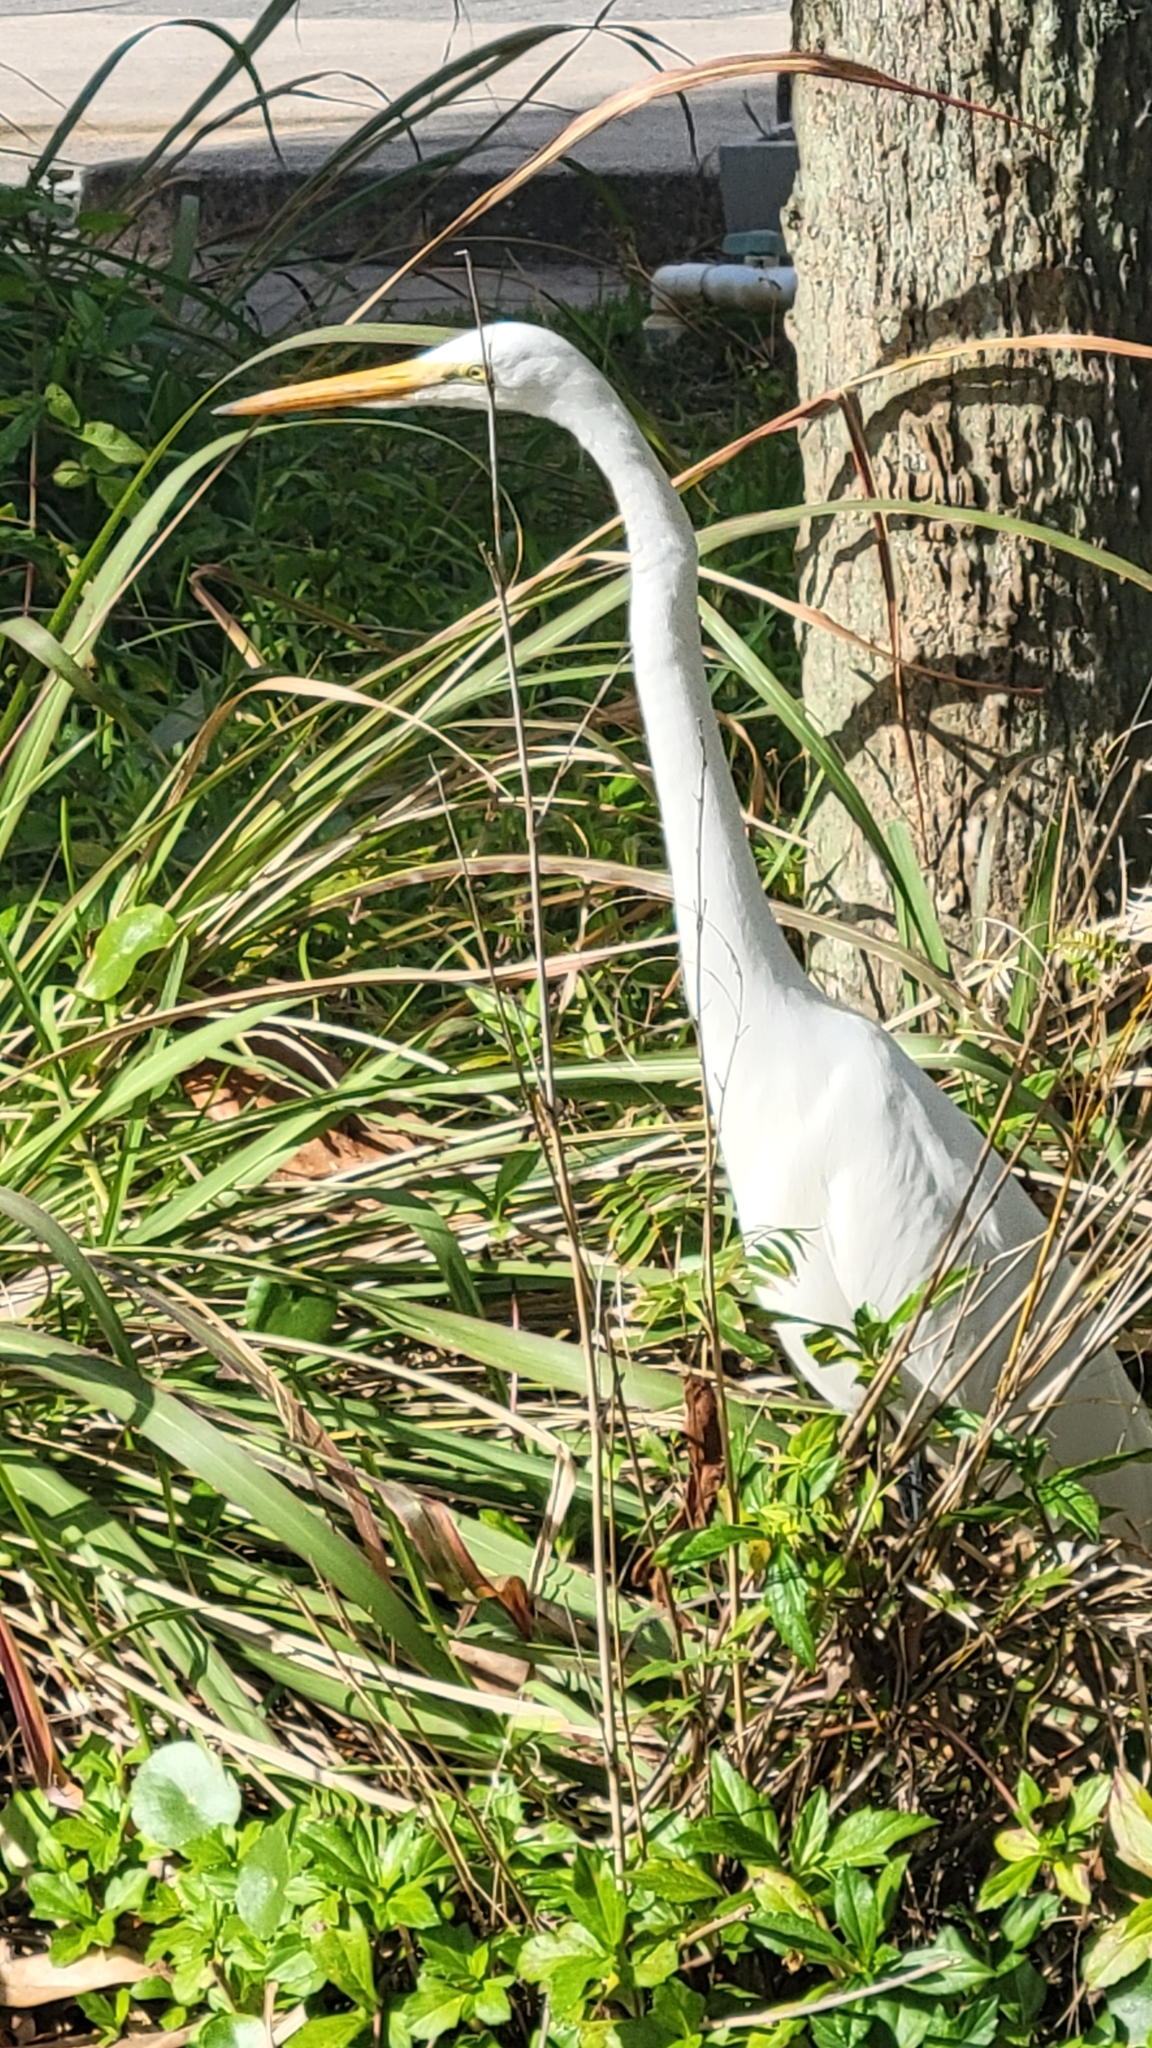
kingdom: Animalia
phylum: Chordata
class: Aves
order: Pelecaniformes
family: Ardeidae
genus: Ardea
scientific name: Ardea alba
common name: Great egret
